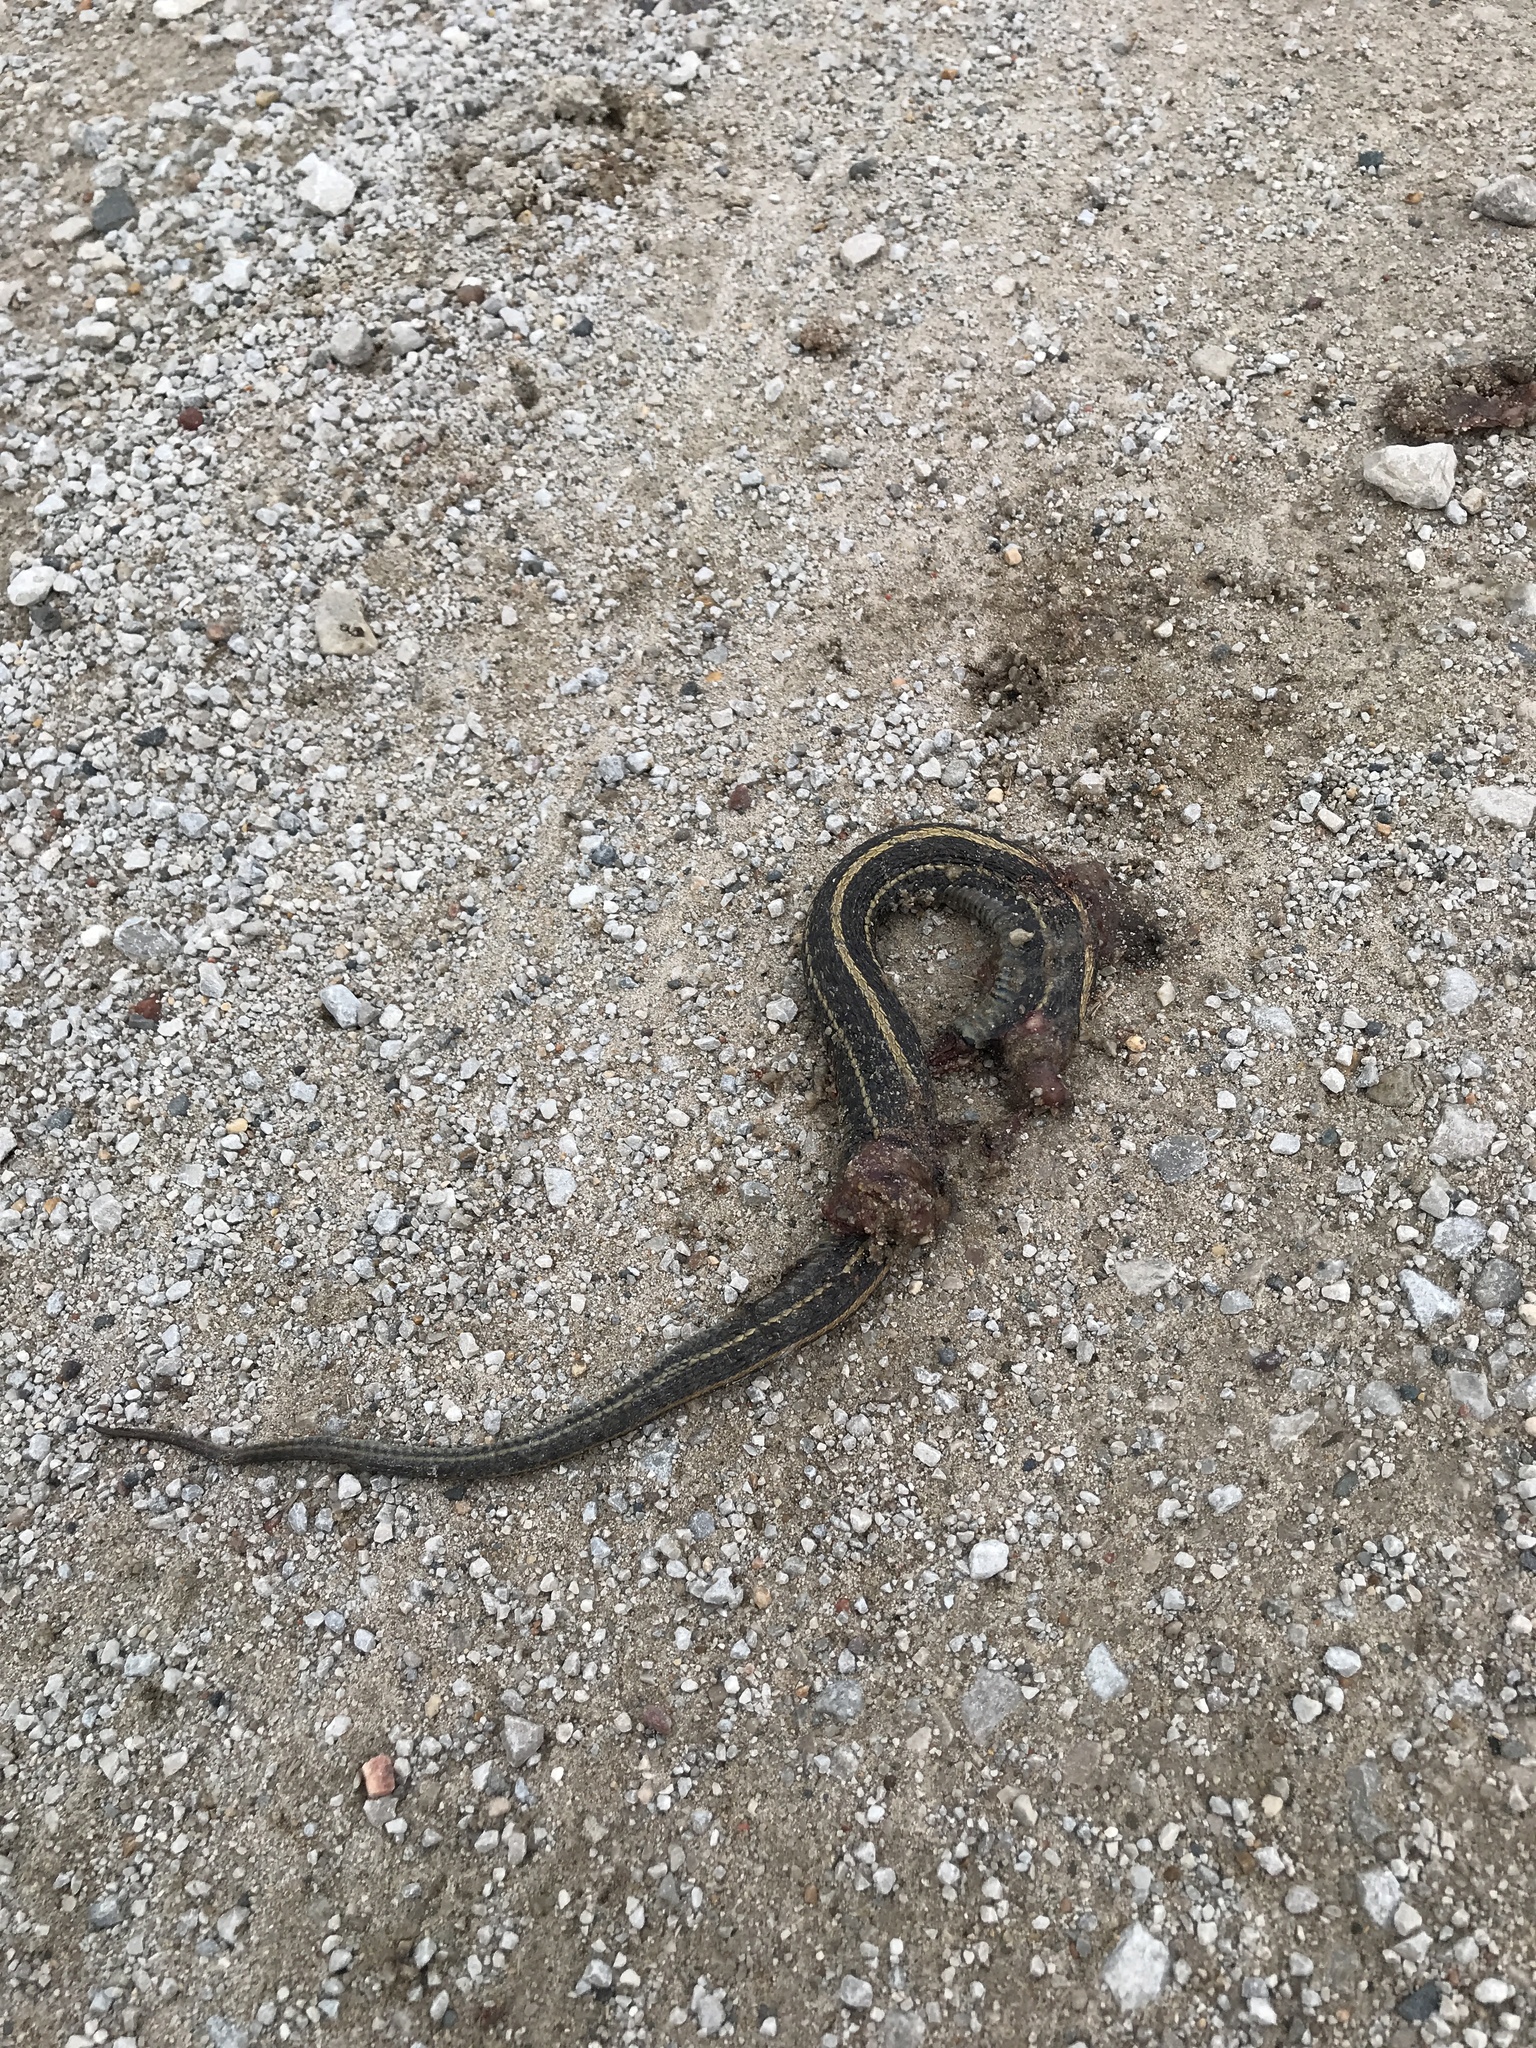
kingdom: Animalia
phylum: Chordata
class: Squamata
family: Colubridae
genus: Thamnophis
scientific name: Thamnophis radix
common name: Plains garter snake
